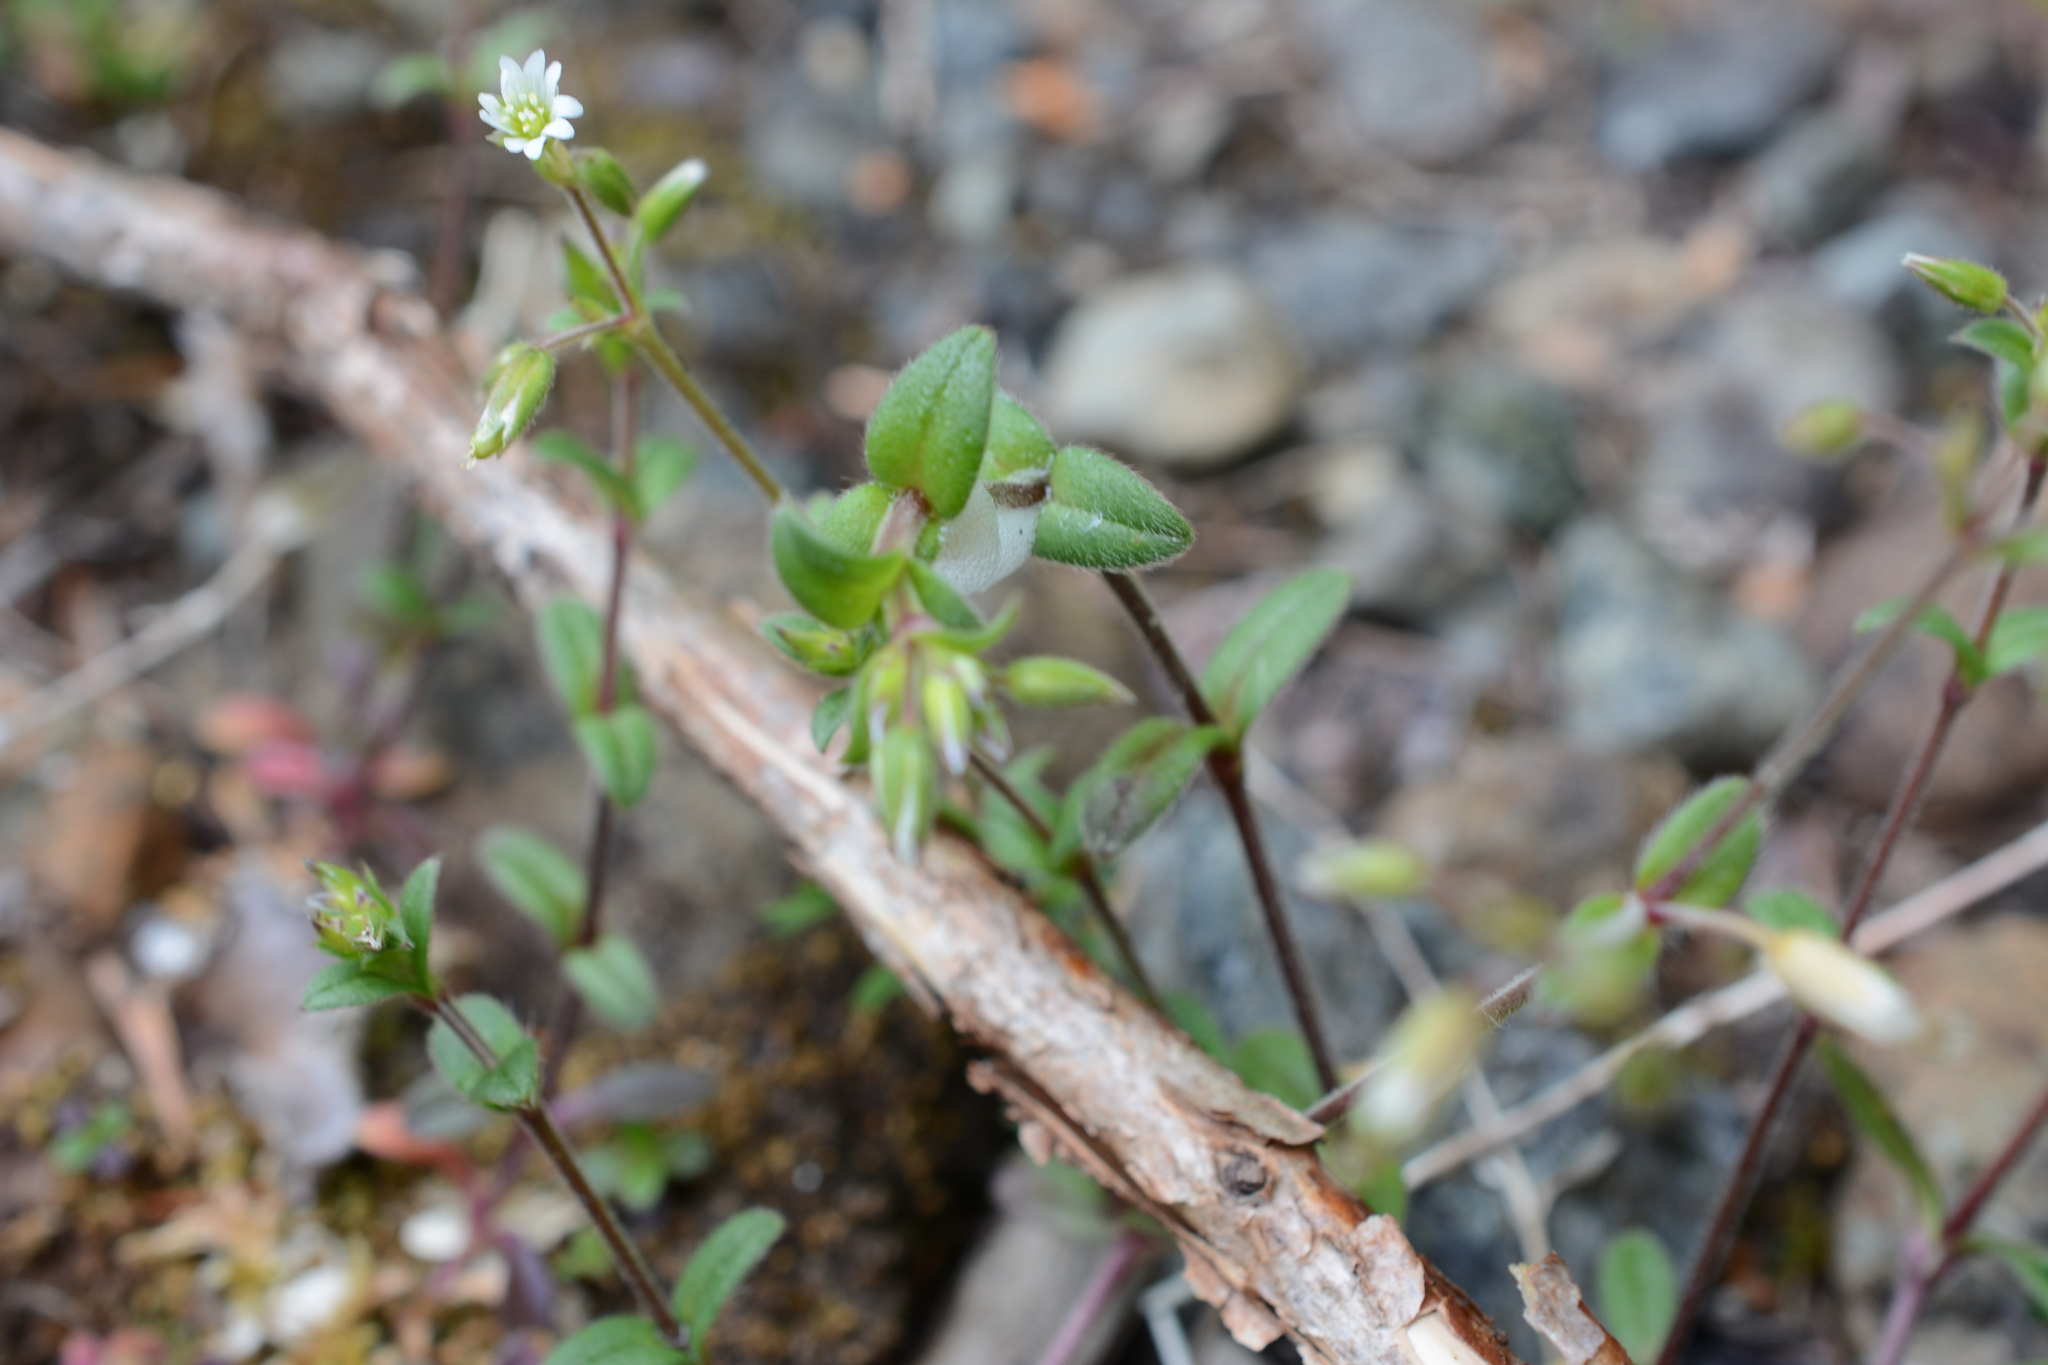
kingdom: Plantae
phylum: Tracheophyta
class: Magnoliopsida
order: Caryophyllales
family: Caryophyllaceae
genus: Cerastium
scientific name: Cerastium fontanum
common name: Common mouse-ear
